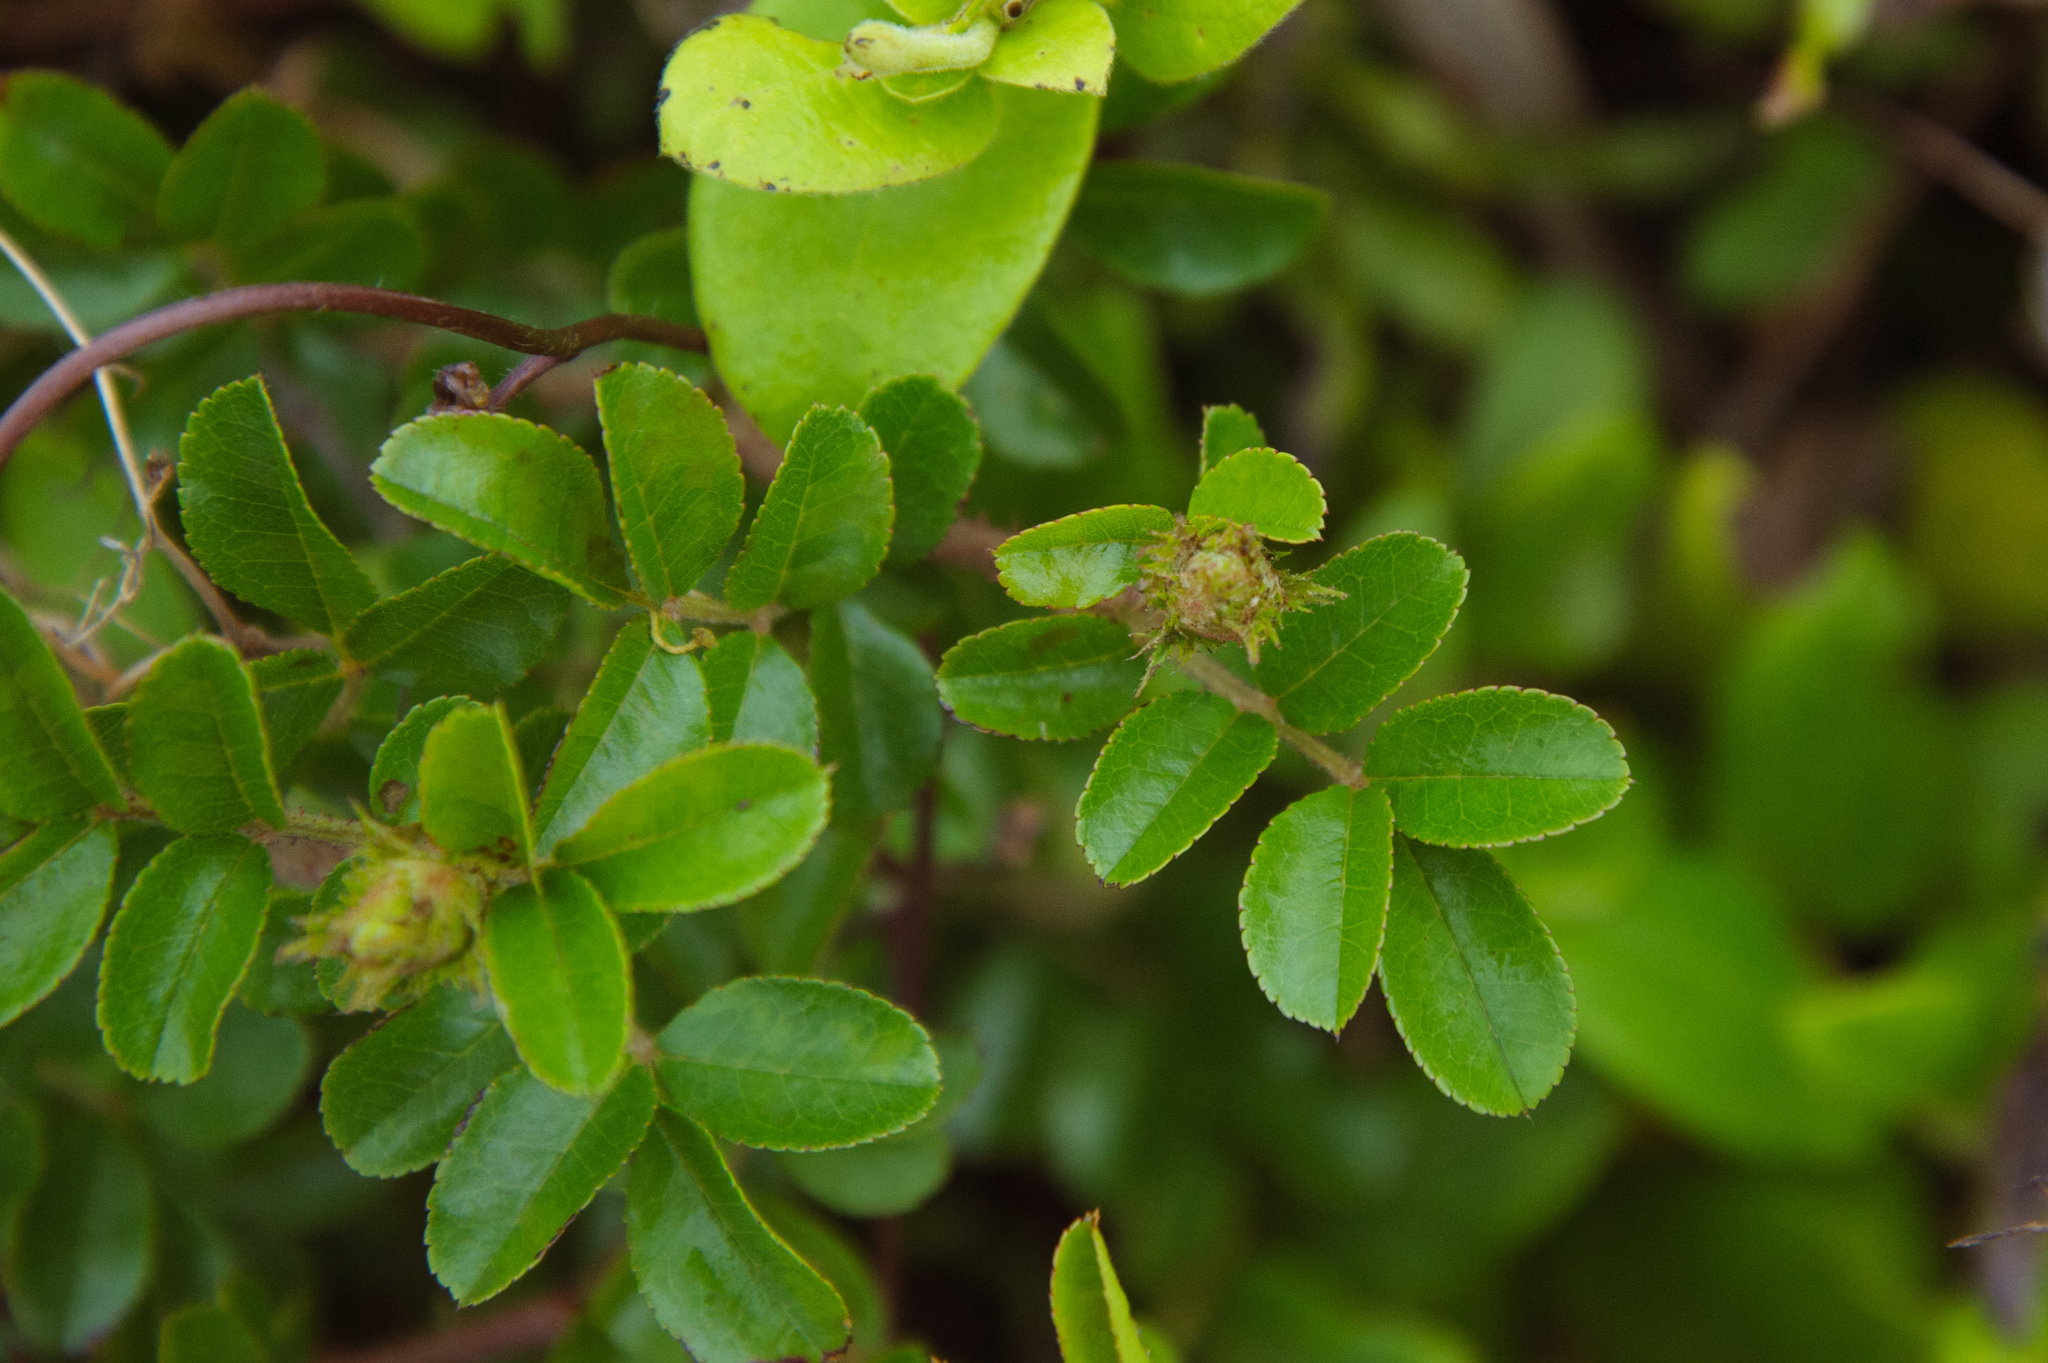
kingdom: Plantae
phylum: Tracheophyta
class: Magnoliopsida
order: Rosales
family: Rosaceae
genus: Rosa
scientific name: Rosa bracteata
